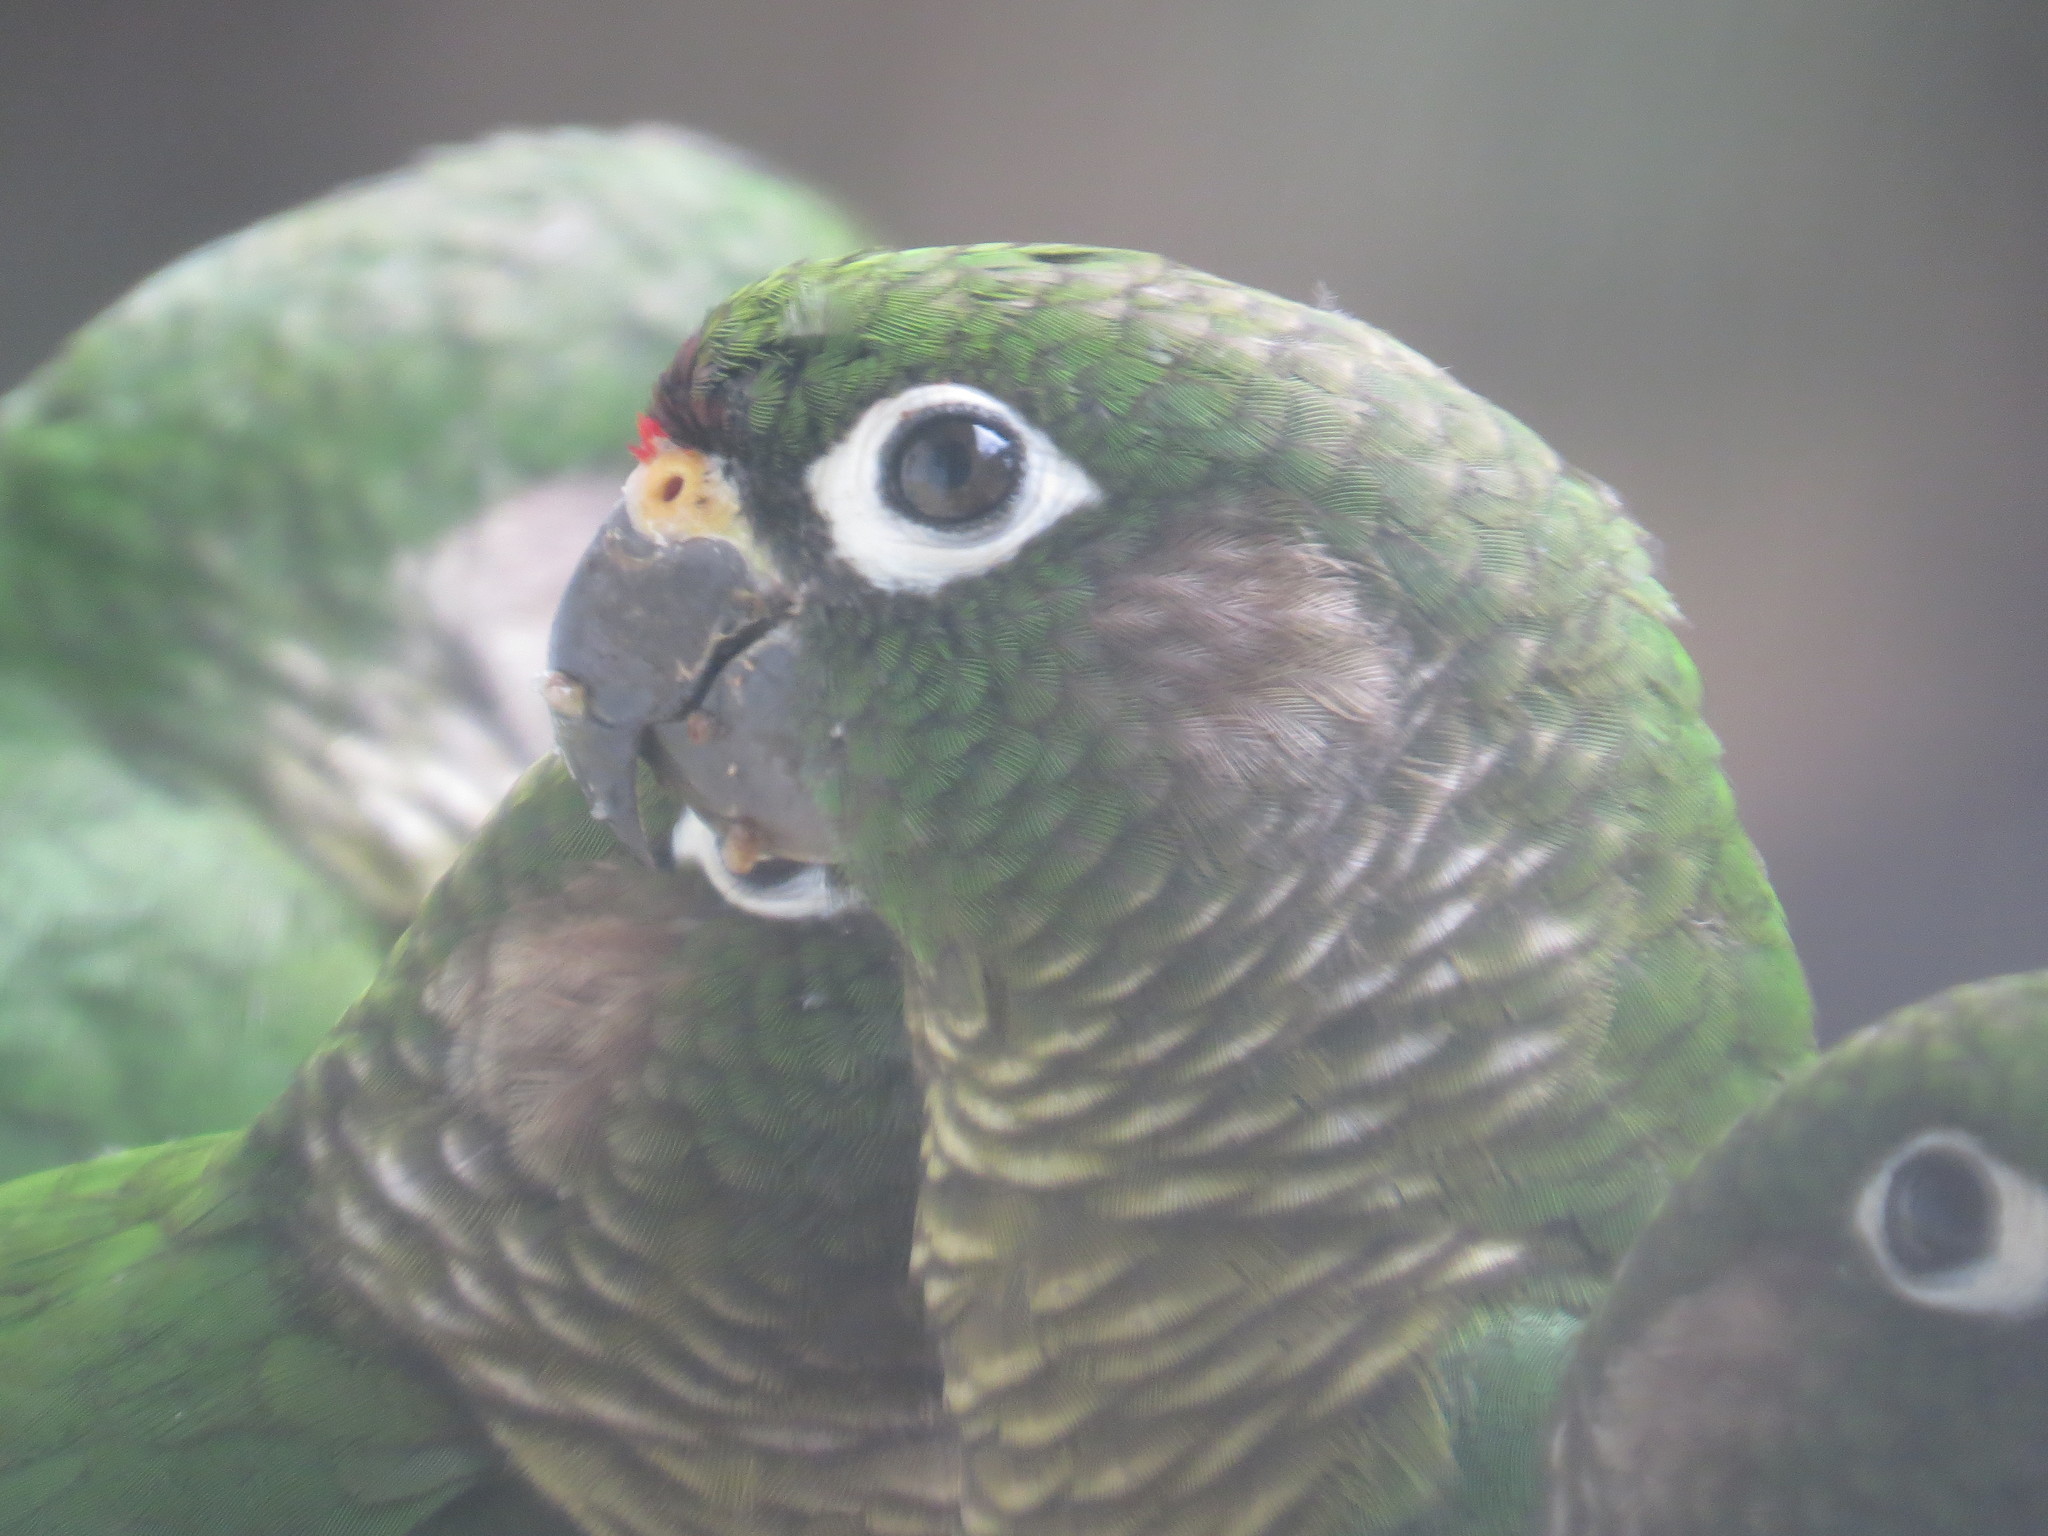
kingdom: Animalia
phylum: Chordata
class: Aves
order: Psittaciformes
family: Psittacidae
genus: Pyrrhura
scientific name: Pyrrhura frontalis
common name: Maroon-bellied parakeet
